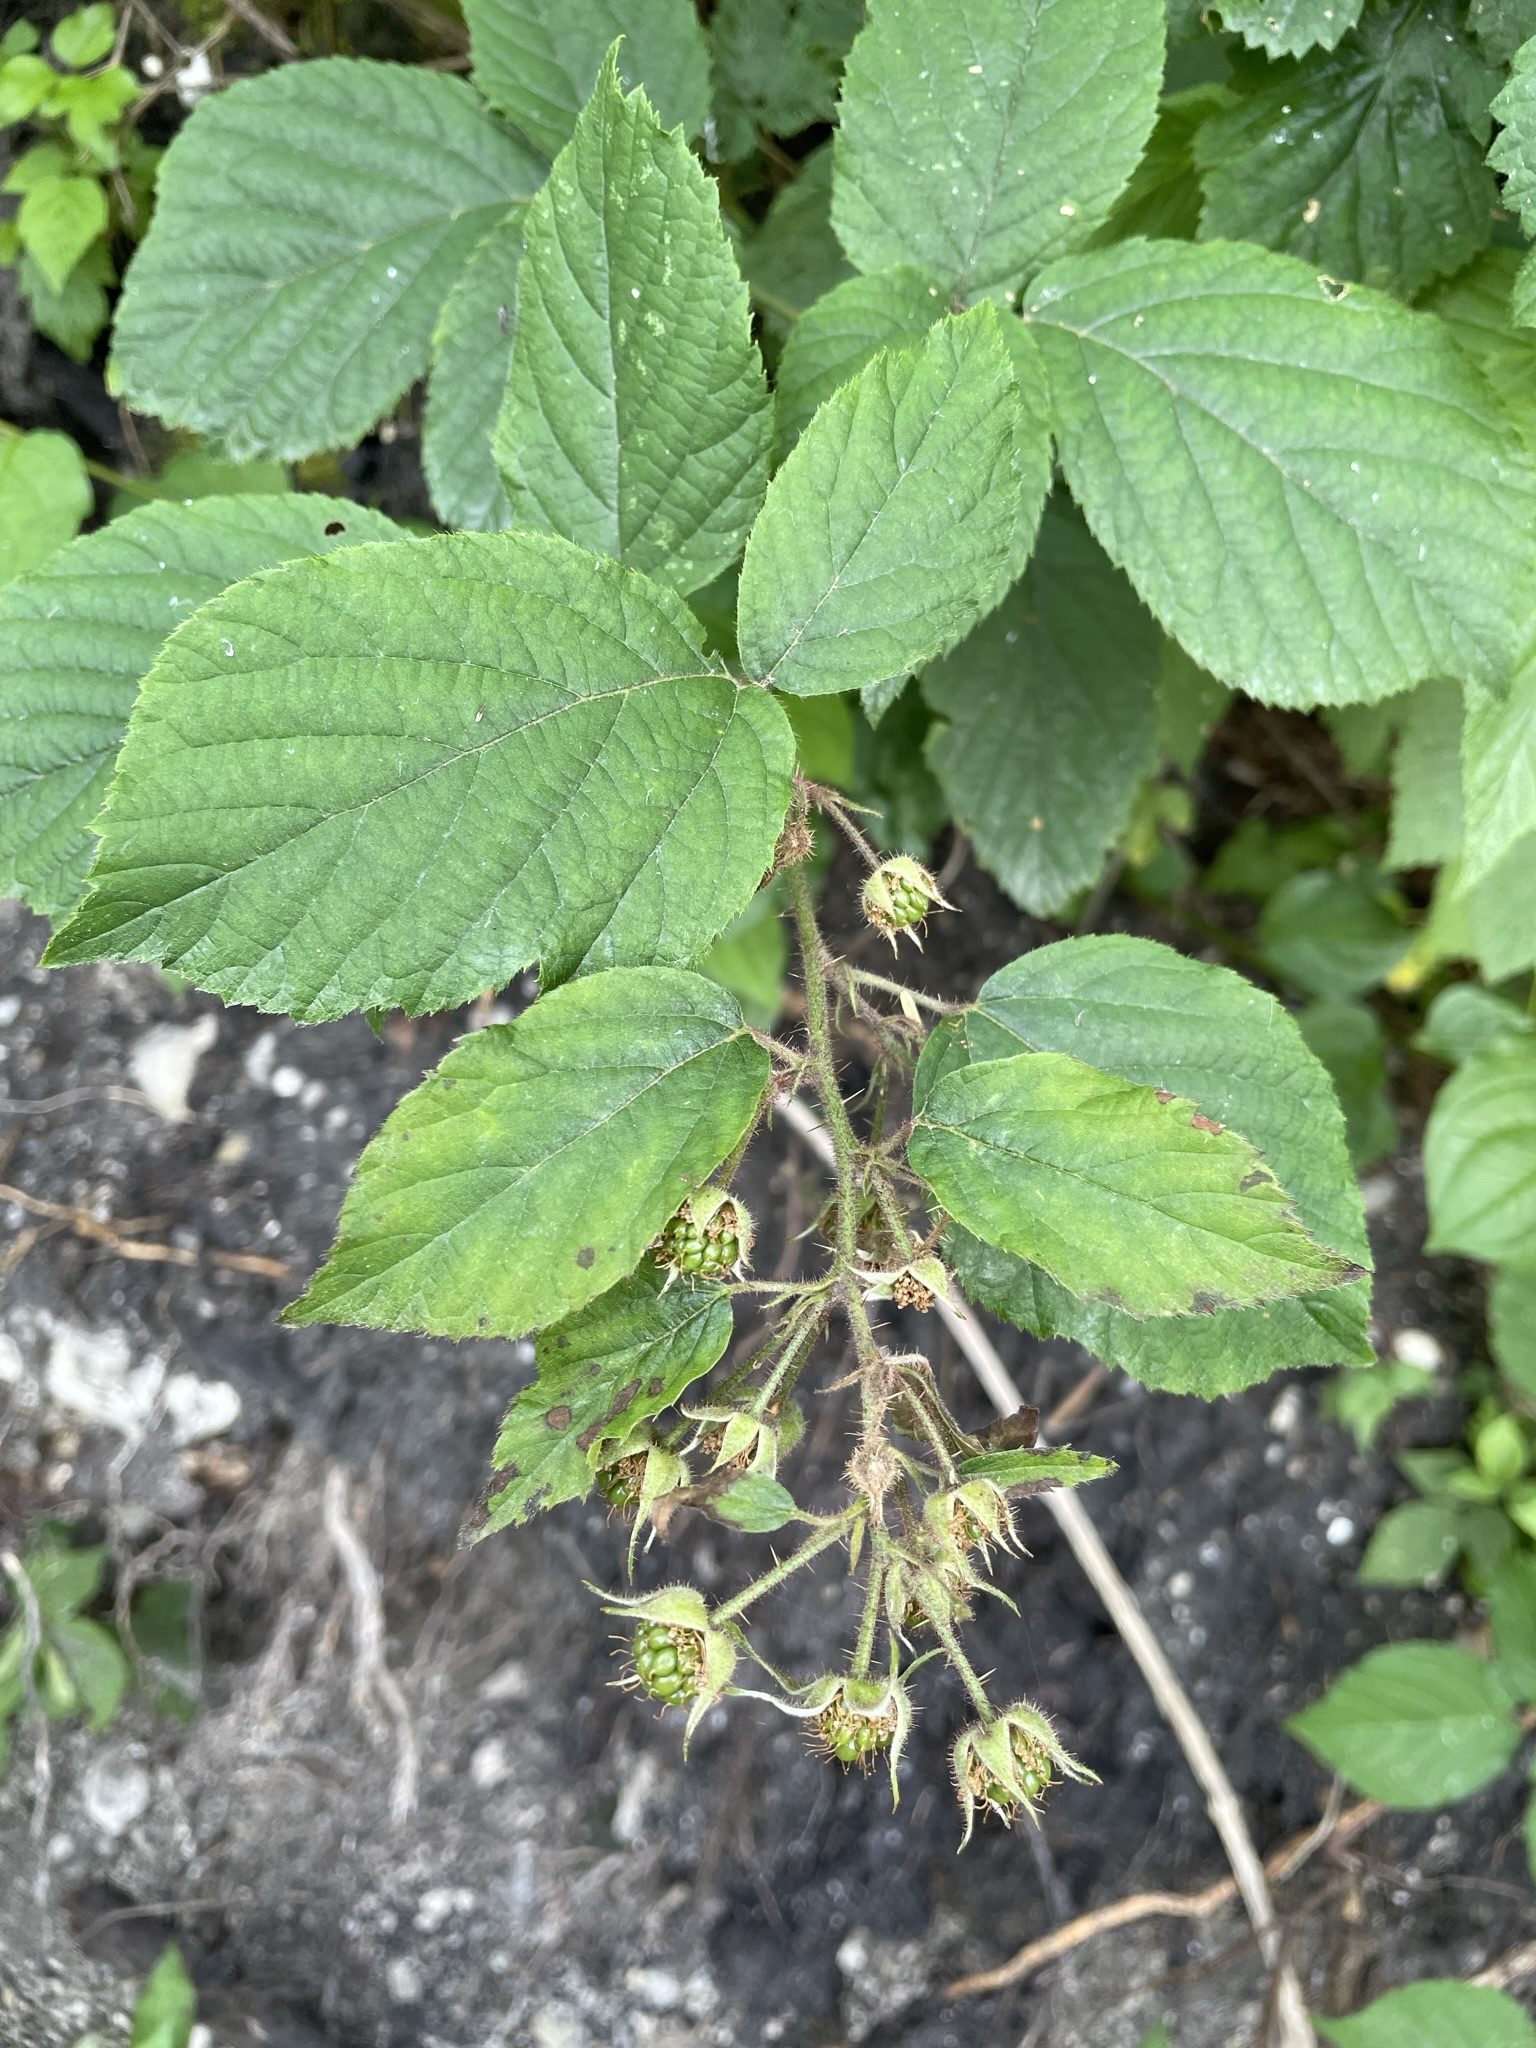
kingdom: Plantae
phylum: Tracheophyta
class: Magnoliopsida
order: Rosales
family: Rosaceae
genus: Rubus
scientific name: Rubus
